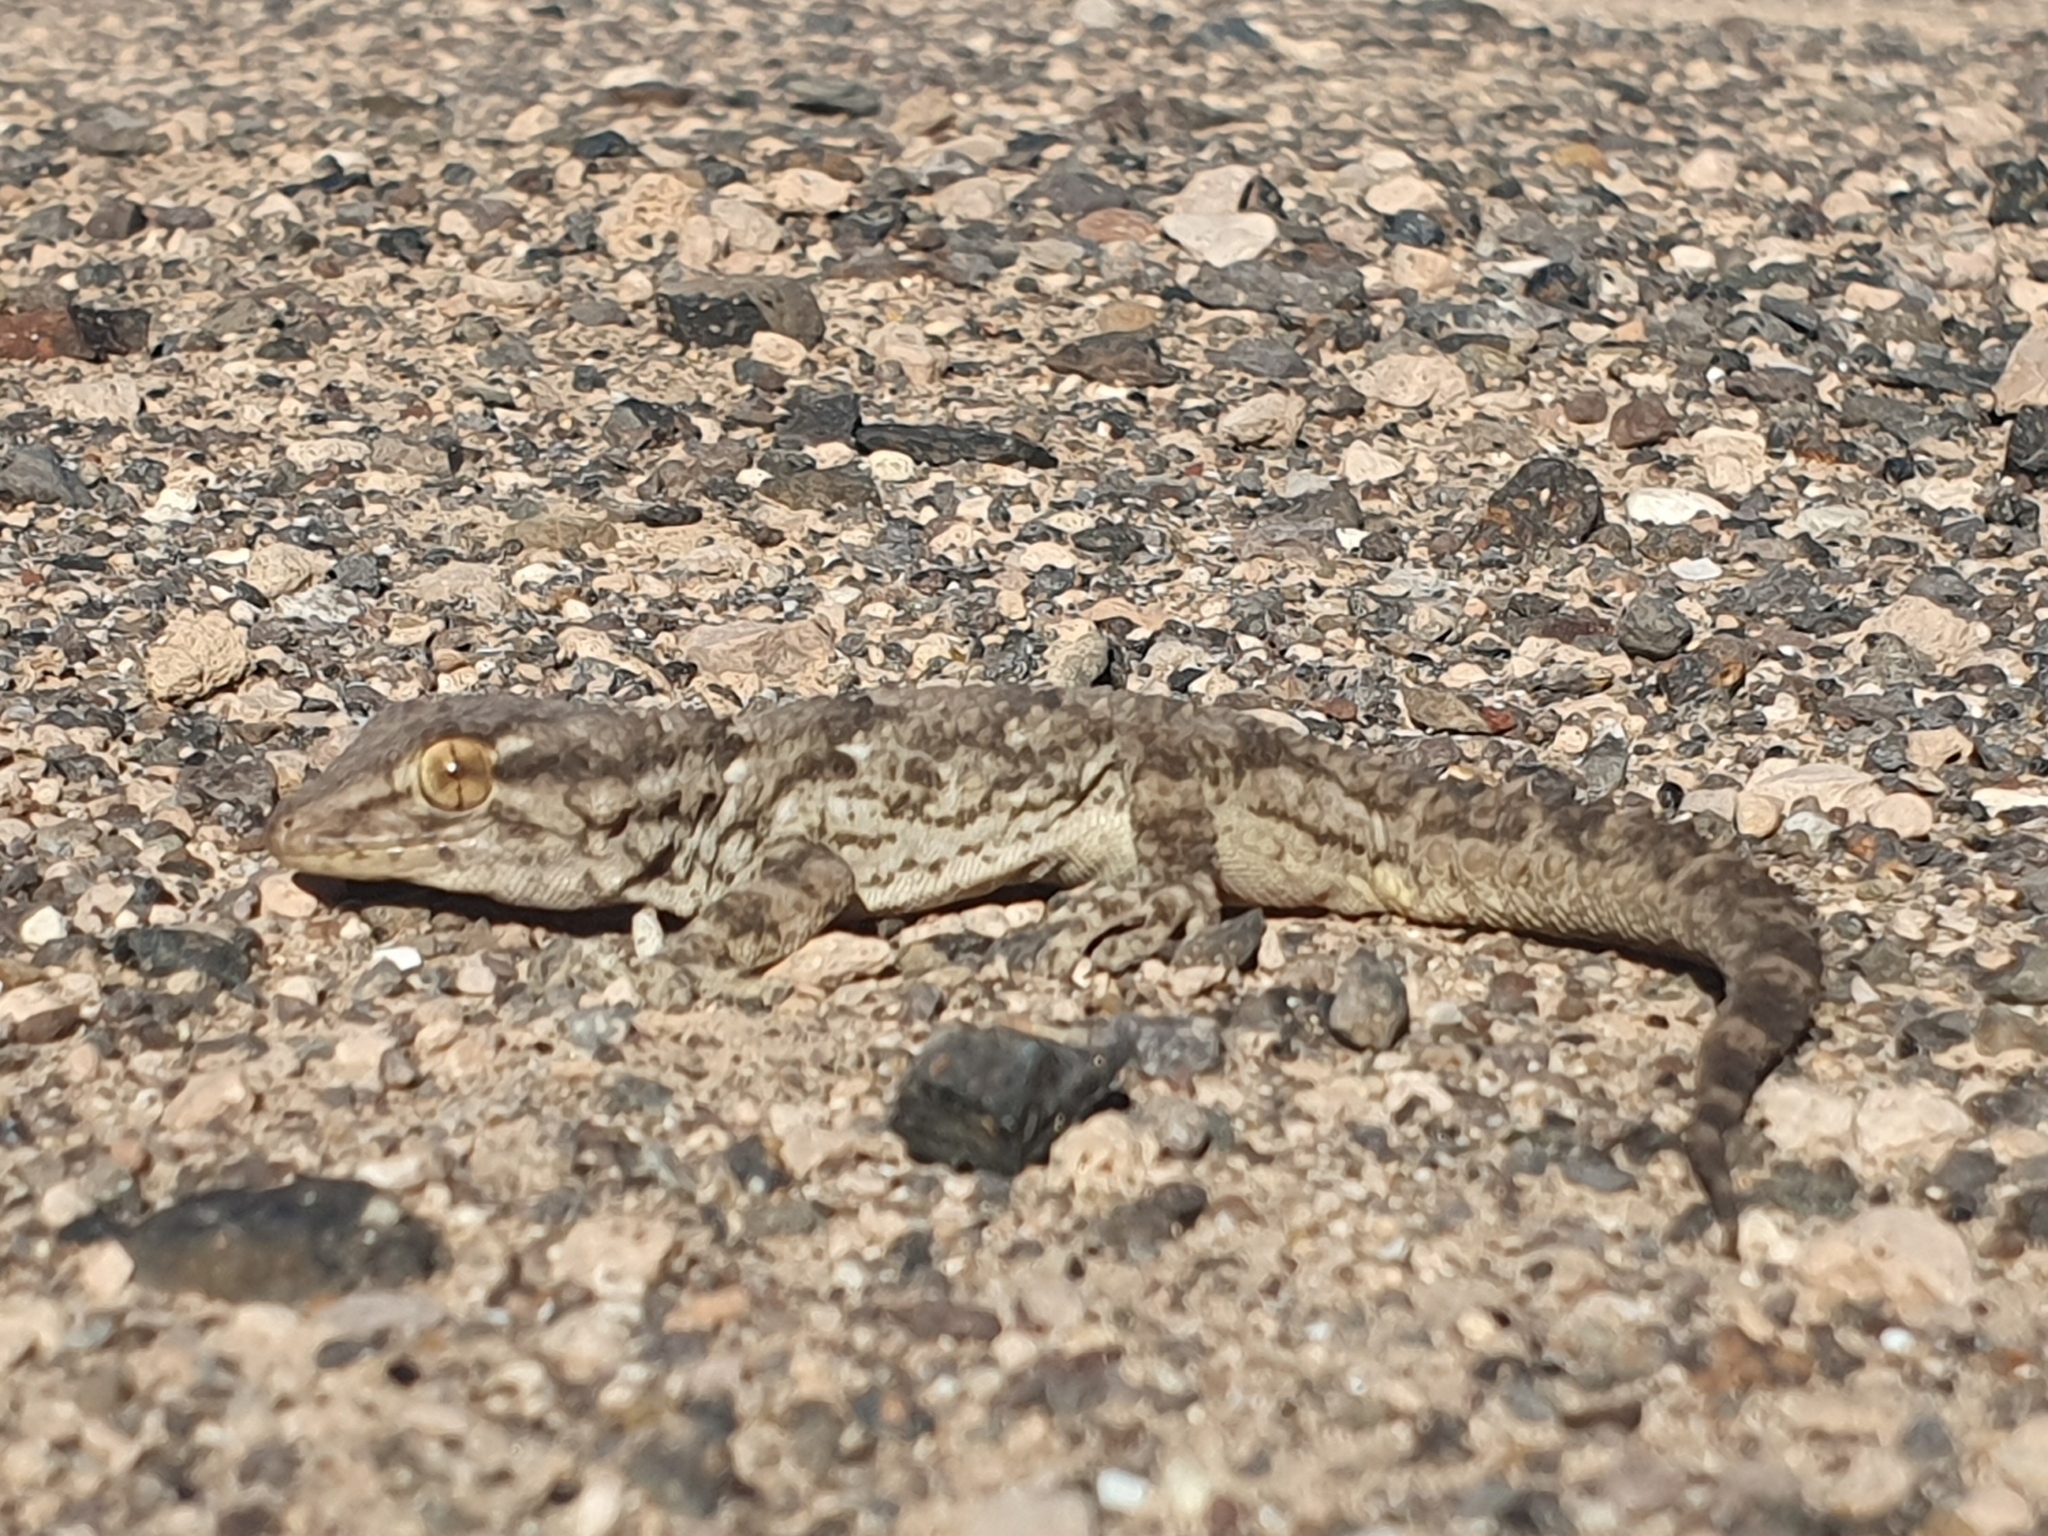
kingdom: Animalia
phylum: Chordata
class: Squamata
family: Phyllodactylidae
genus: Tarentola
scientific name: Tarentola angustimentalis
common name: East canary gecko
